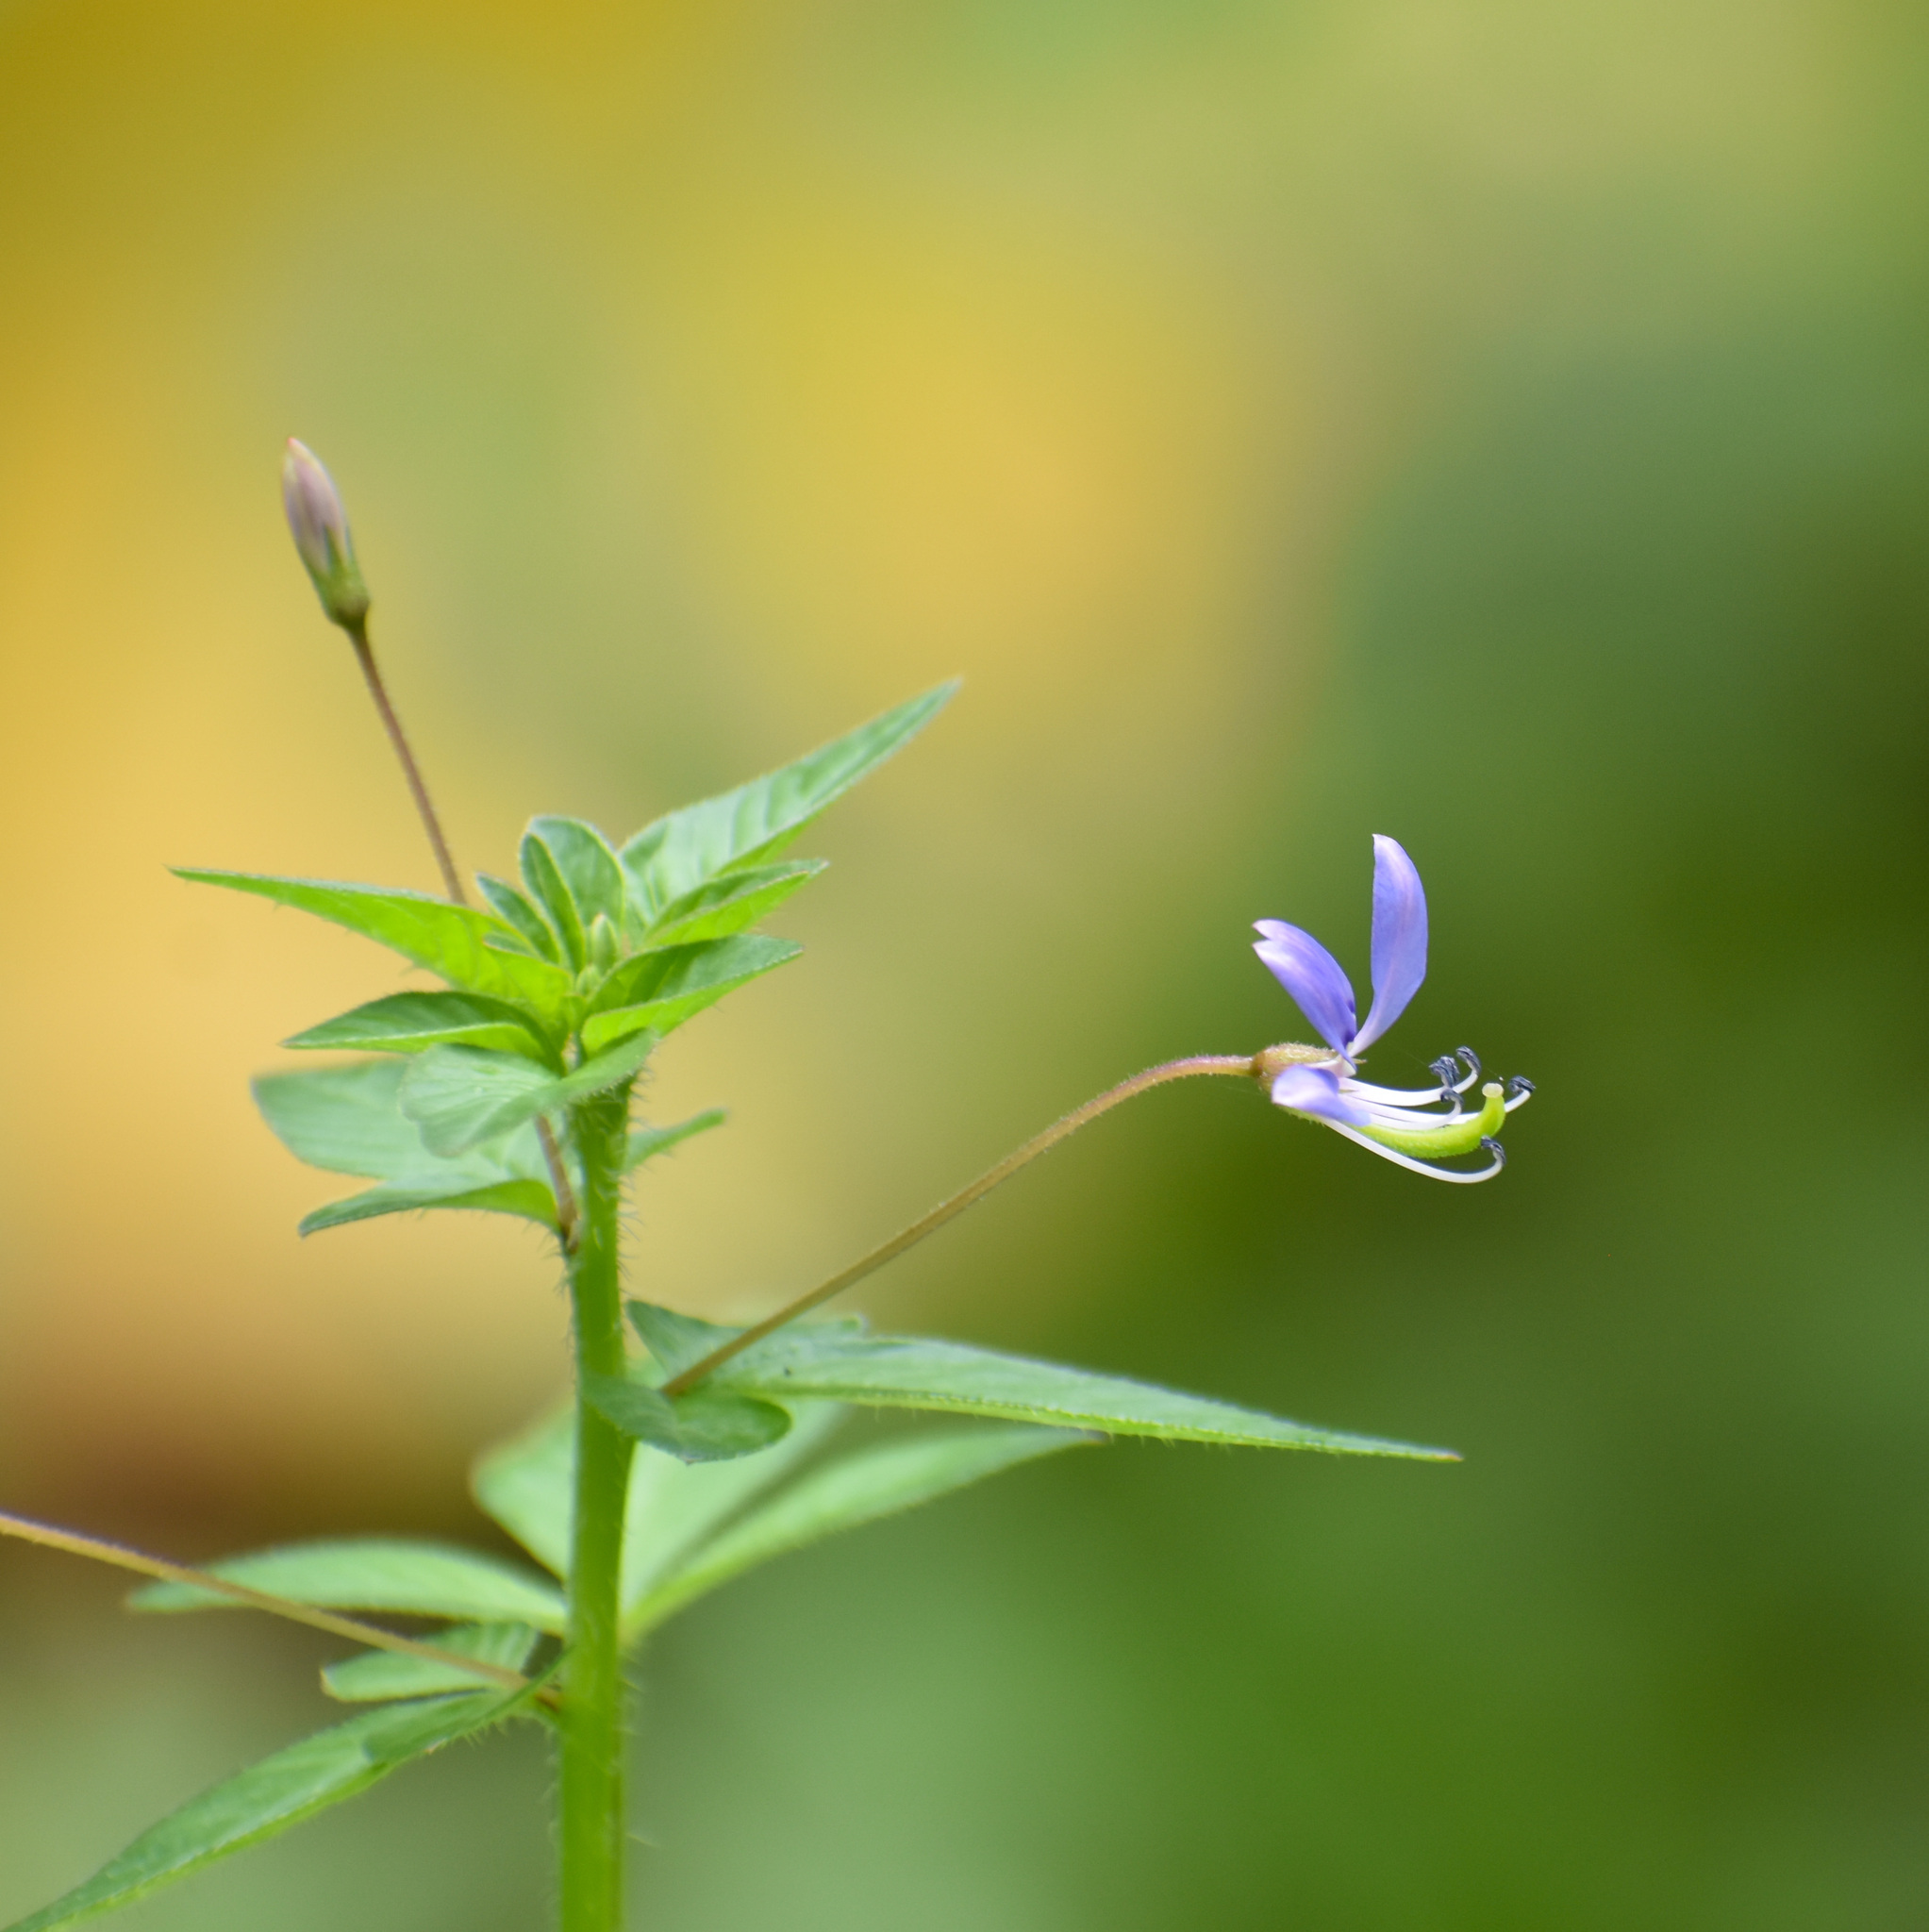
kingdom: Plantae
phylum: Tracheophyta
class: Magnoliopsida
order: Brassicales
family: Cleomaceae
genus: Sieruela
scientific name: Sieruela rutidosperma
